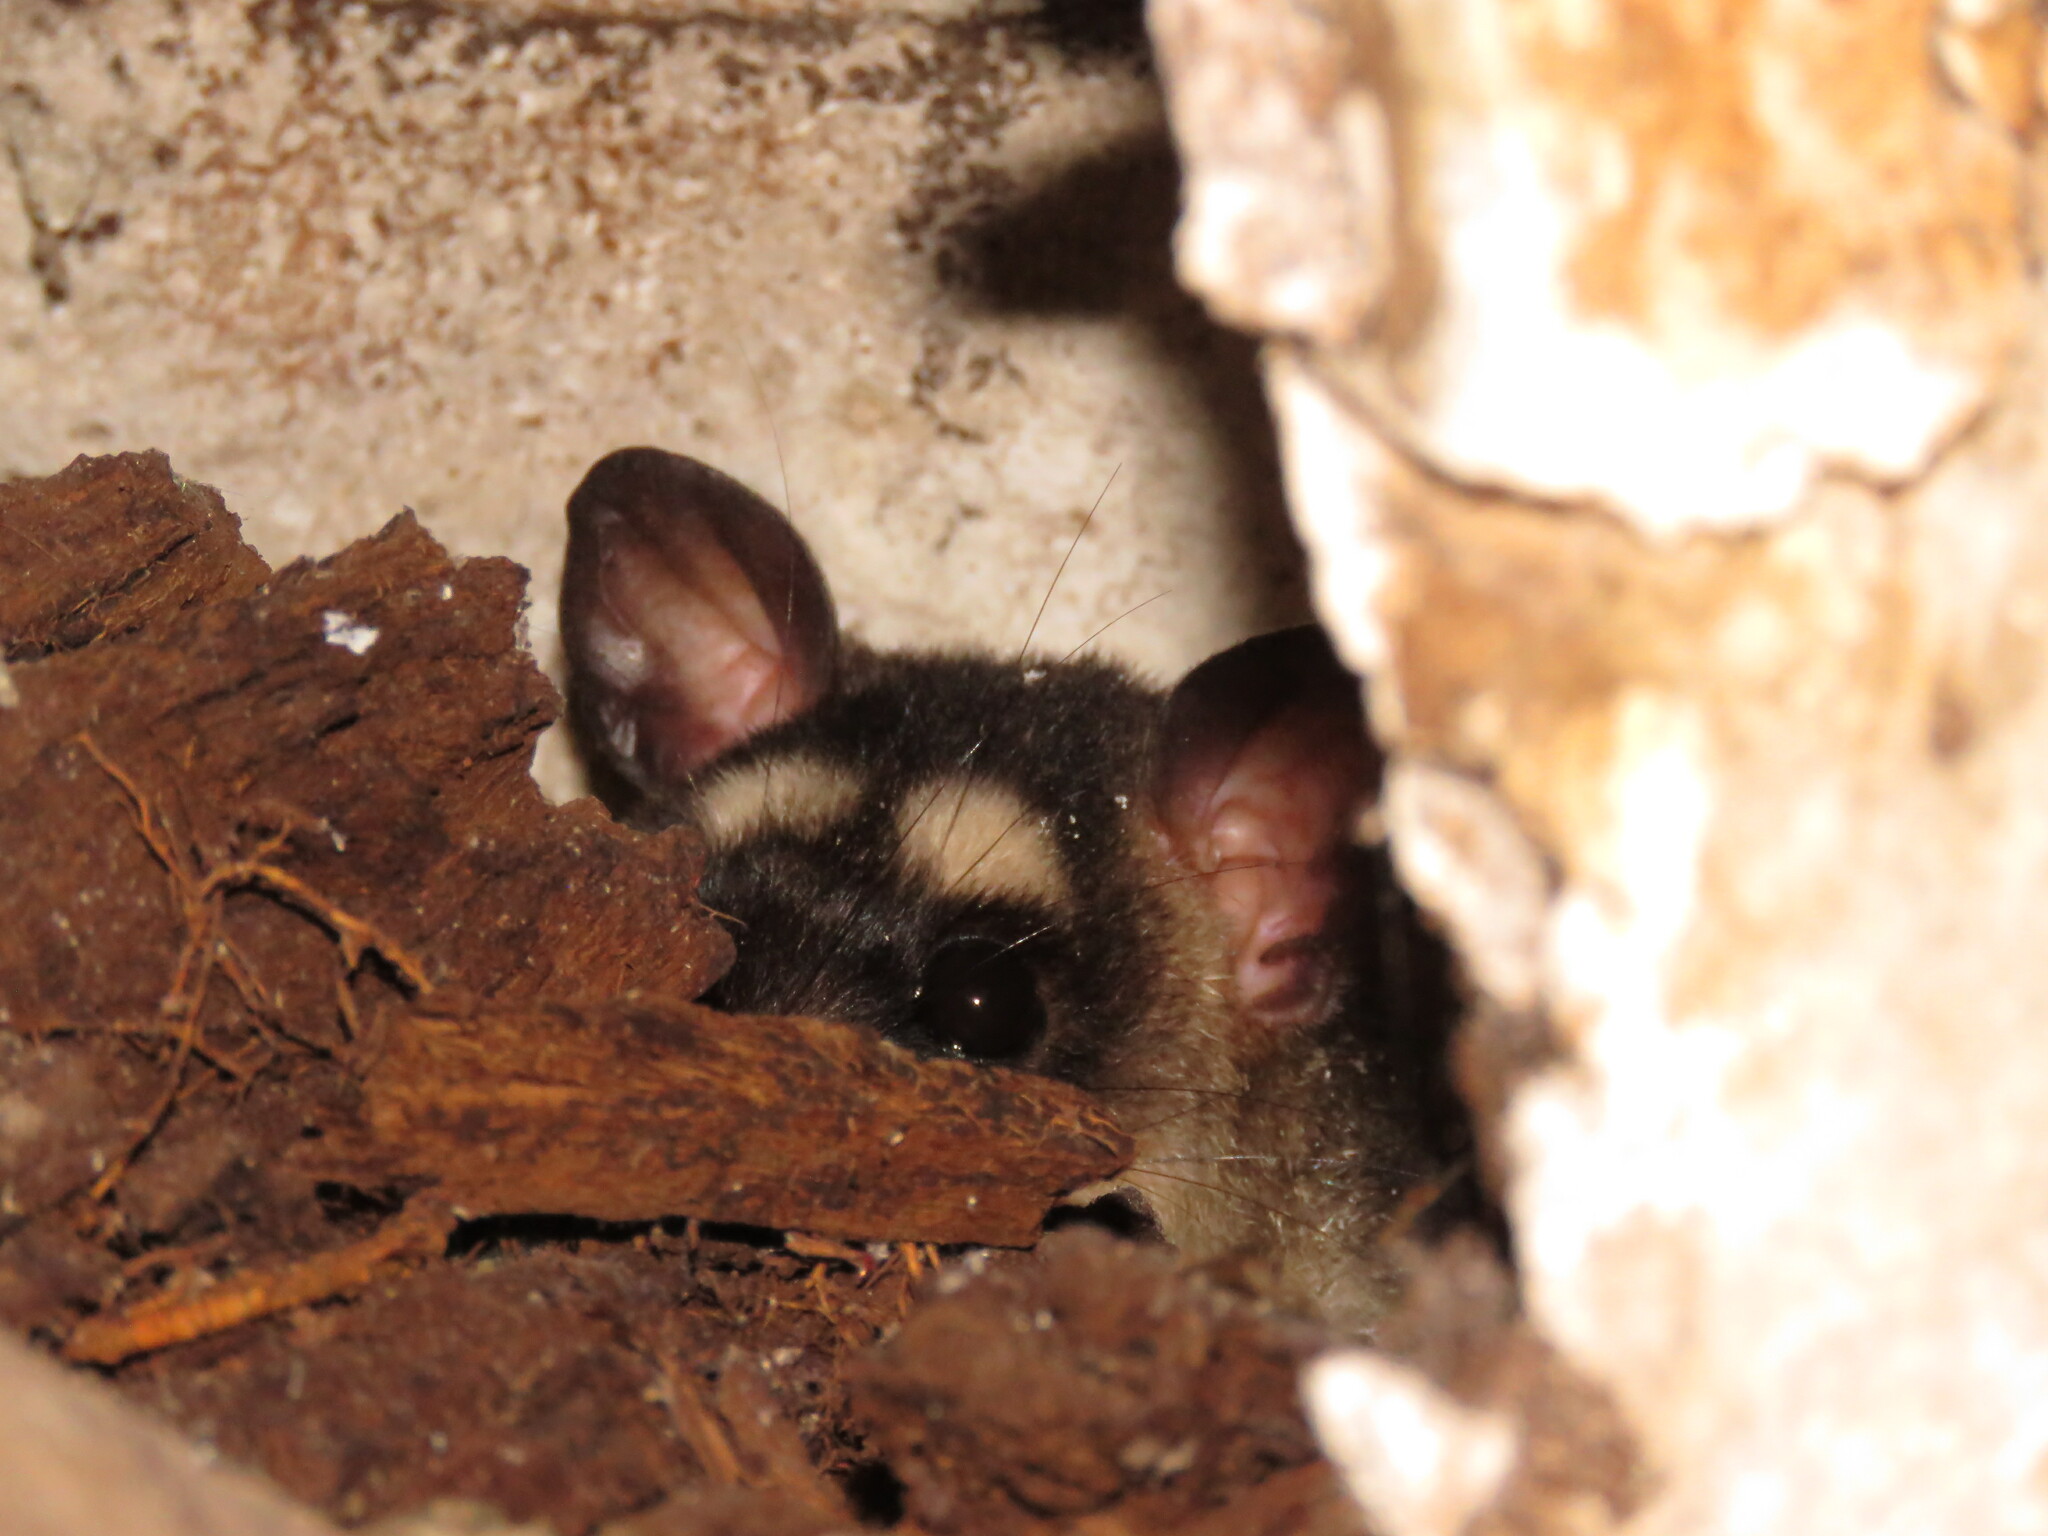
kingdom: Animalia
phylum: Chordata
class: Mammalia
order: Didelphimorphia
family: Didelphidae
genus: Philander
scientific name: Philander
